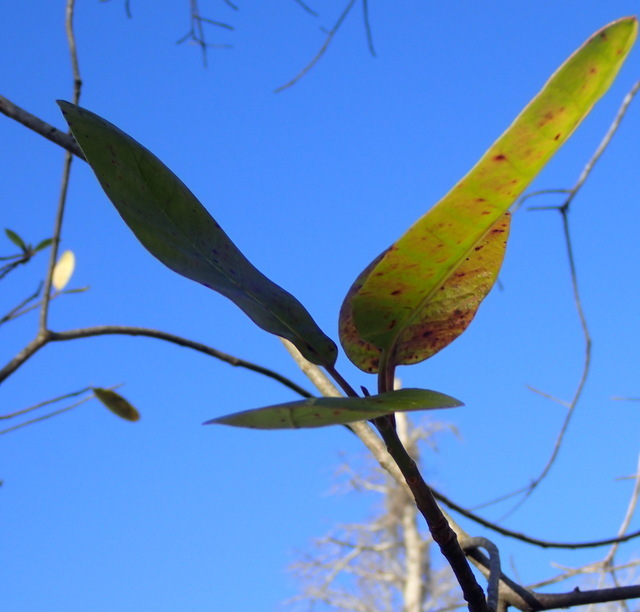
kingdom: Plantae
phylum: Tracheophyta
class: Magnoliopsida
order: Cornales
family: Nyssaceae
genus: Nyssa
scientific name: Nyssa ogeche
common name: Ogeechee tupelo
